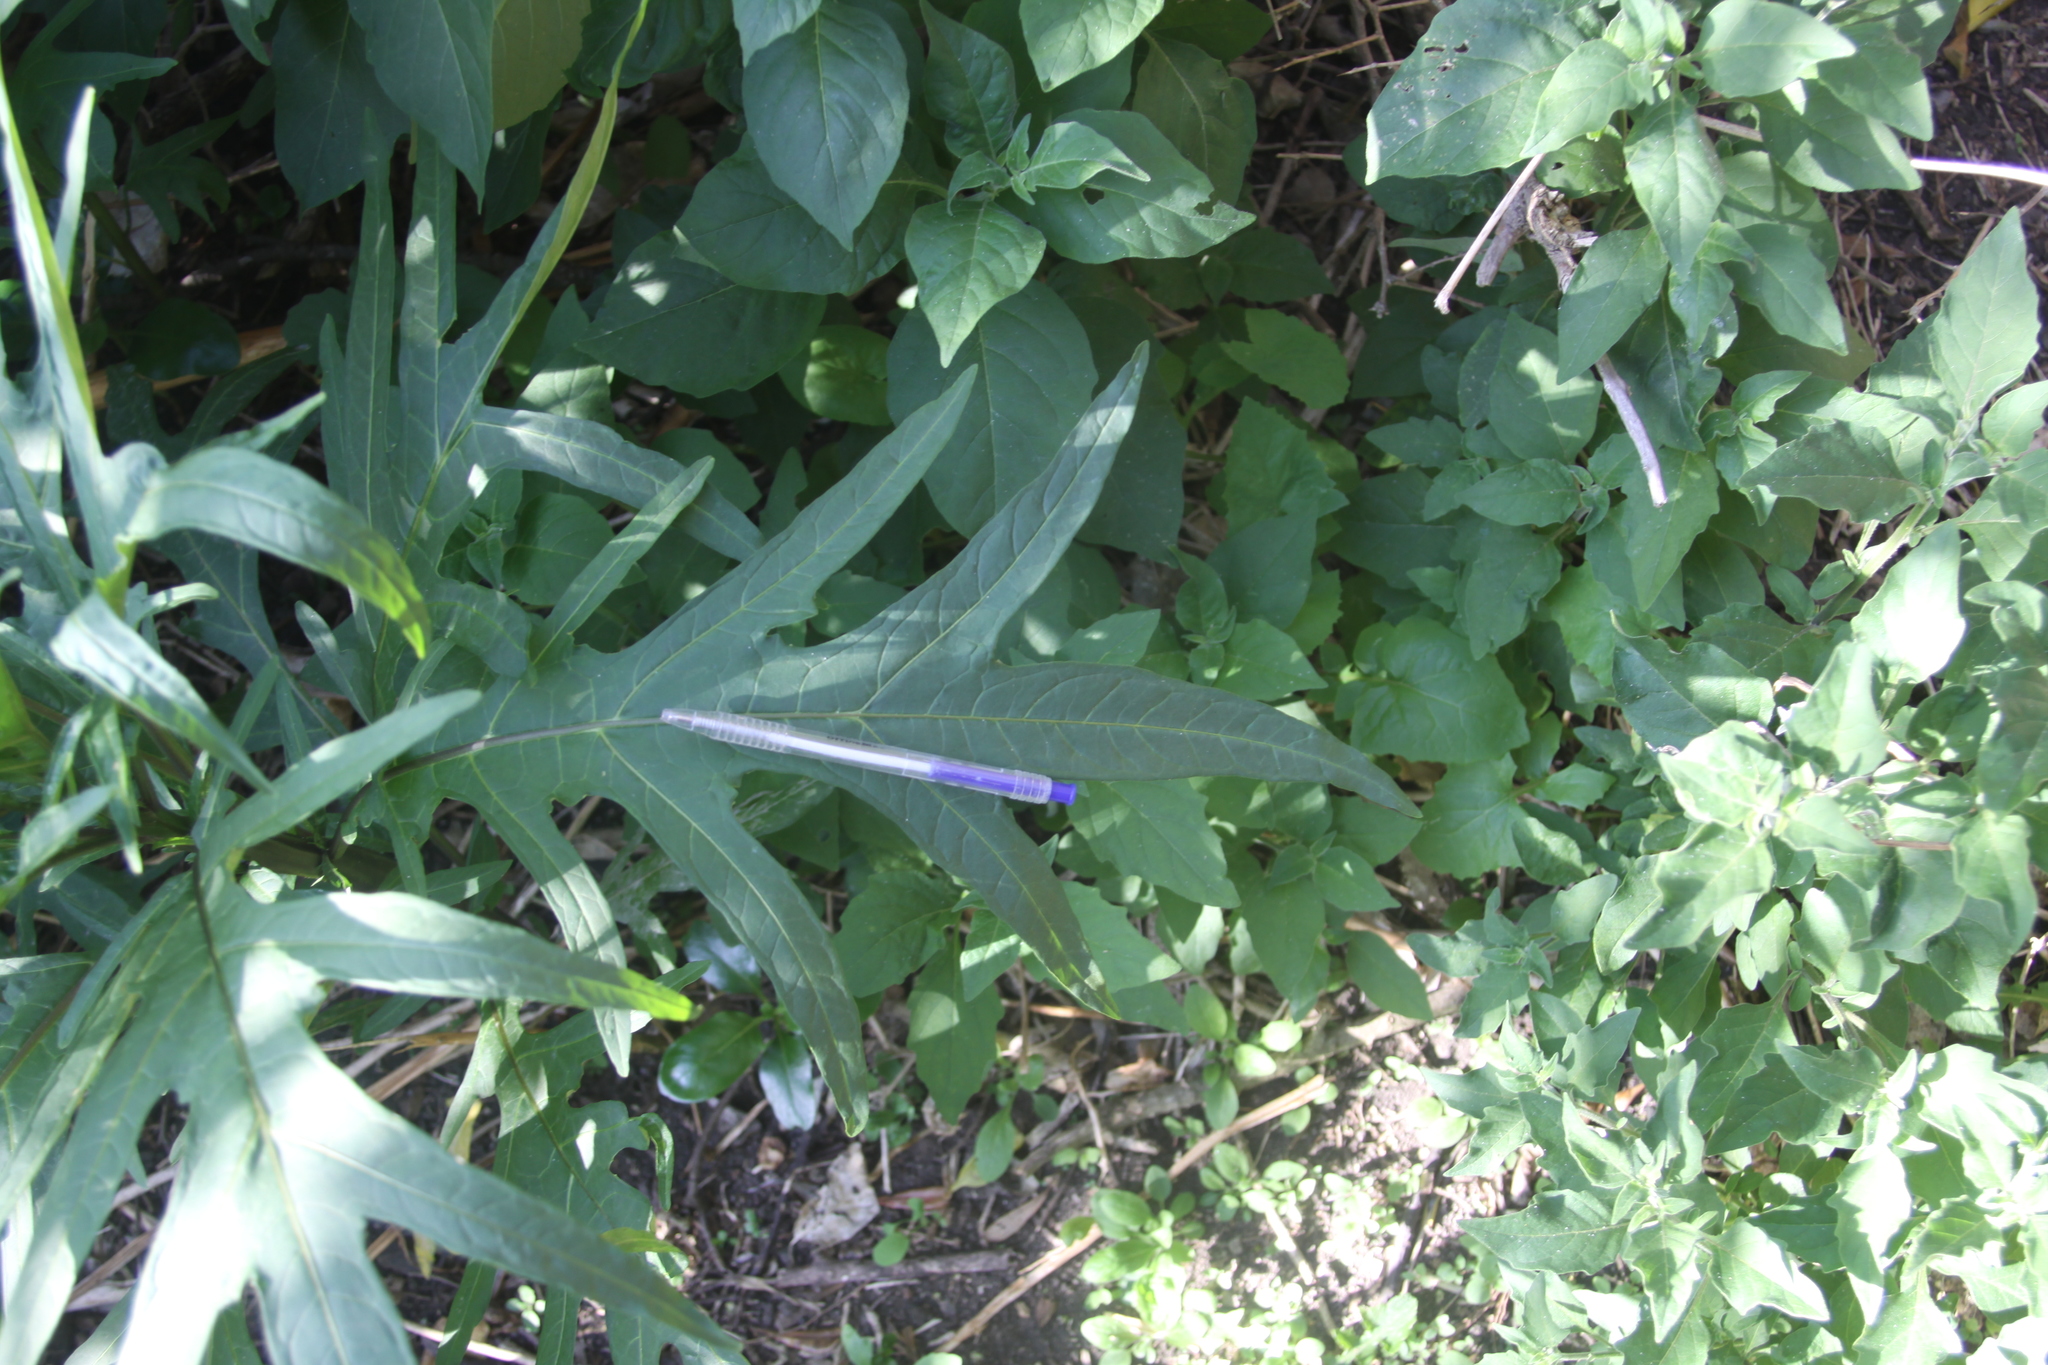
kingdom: Plantae
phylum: Tracheophyta
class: Magnoliopsida
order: Solanales
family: Solanaceae
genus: Solanum
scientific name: Solanum laciniatum
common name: Kangaroo-apple
